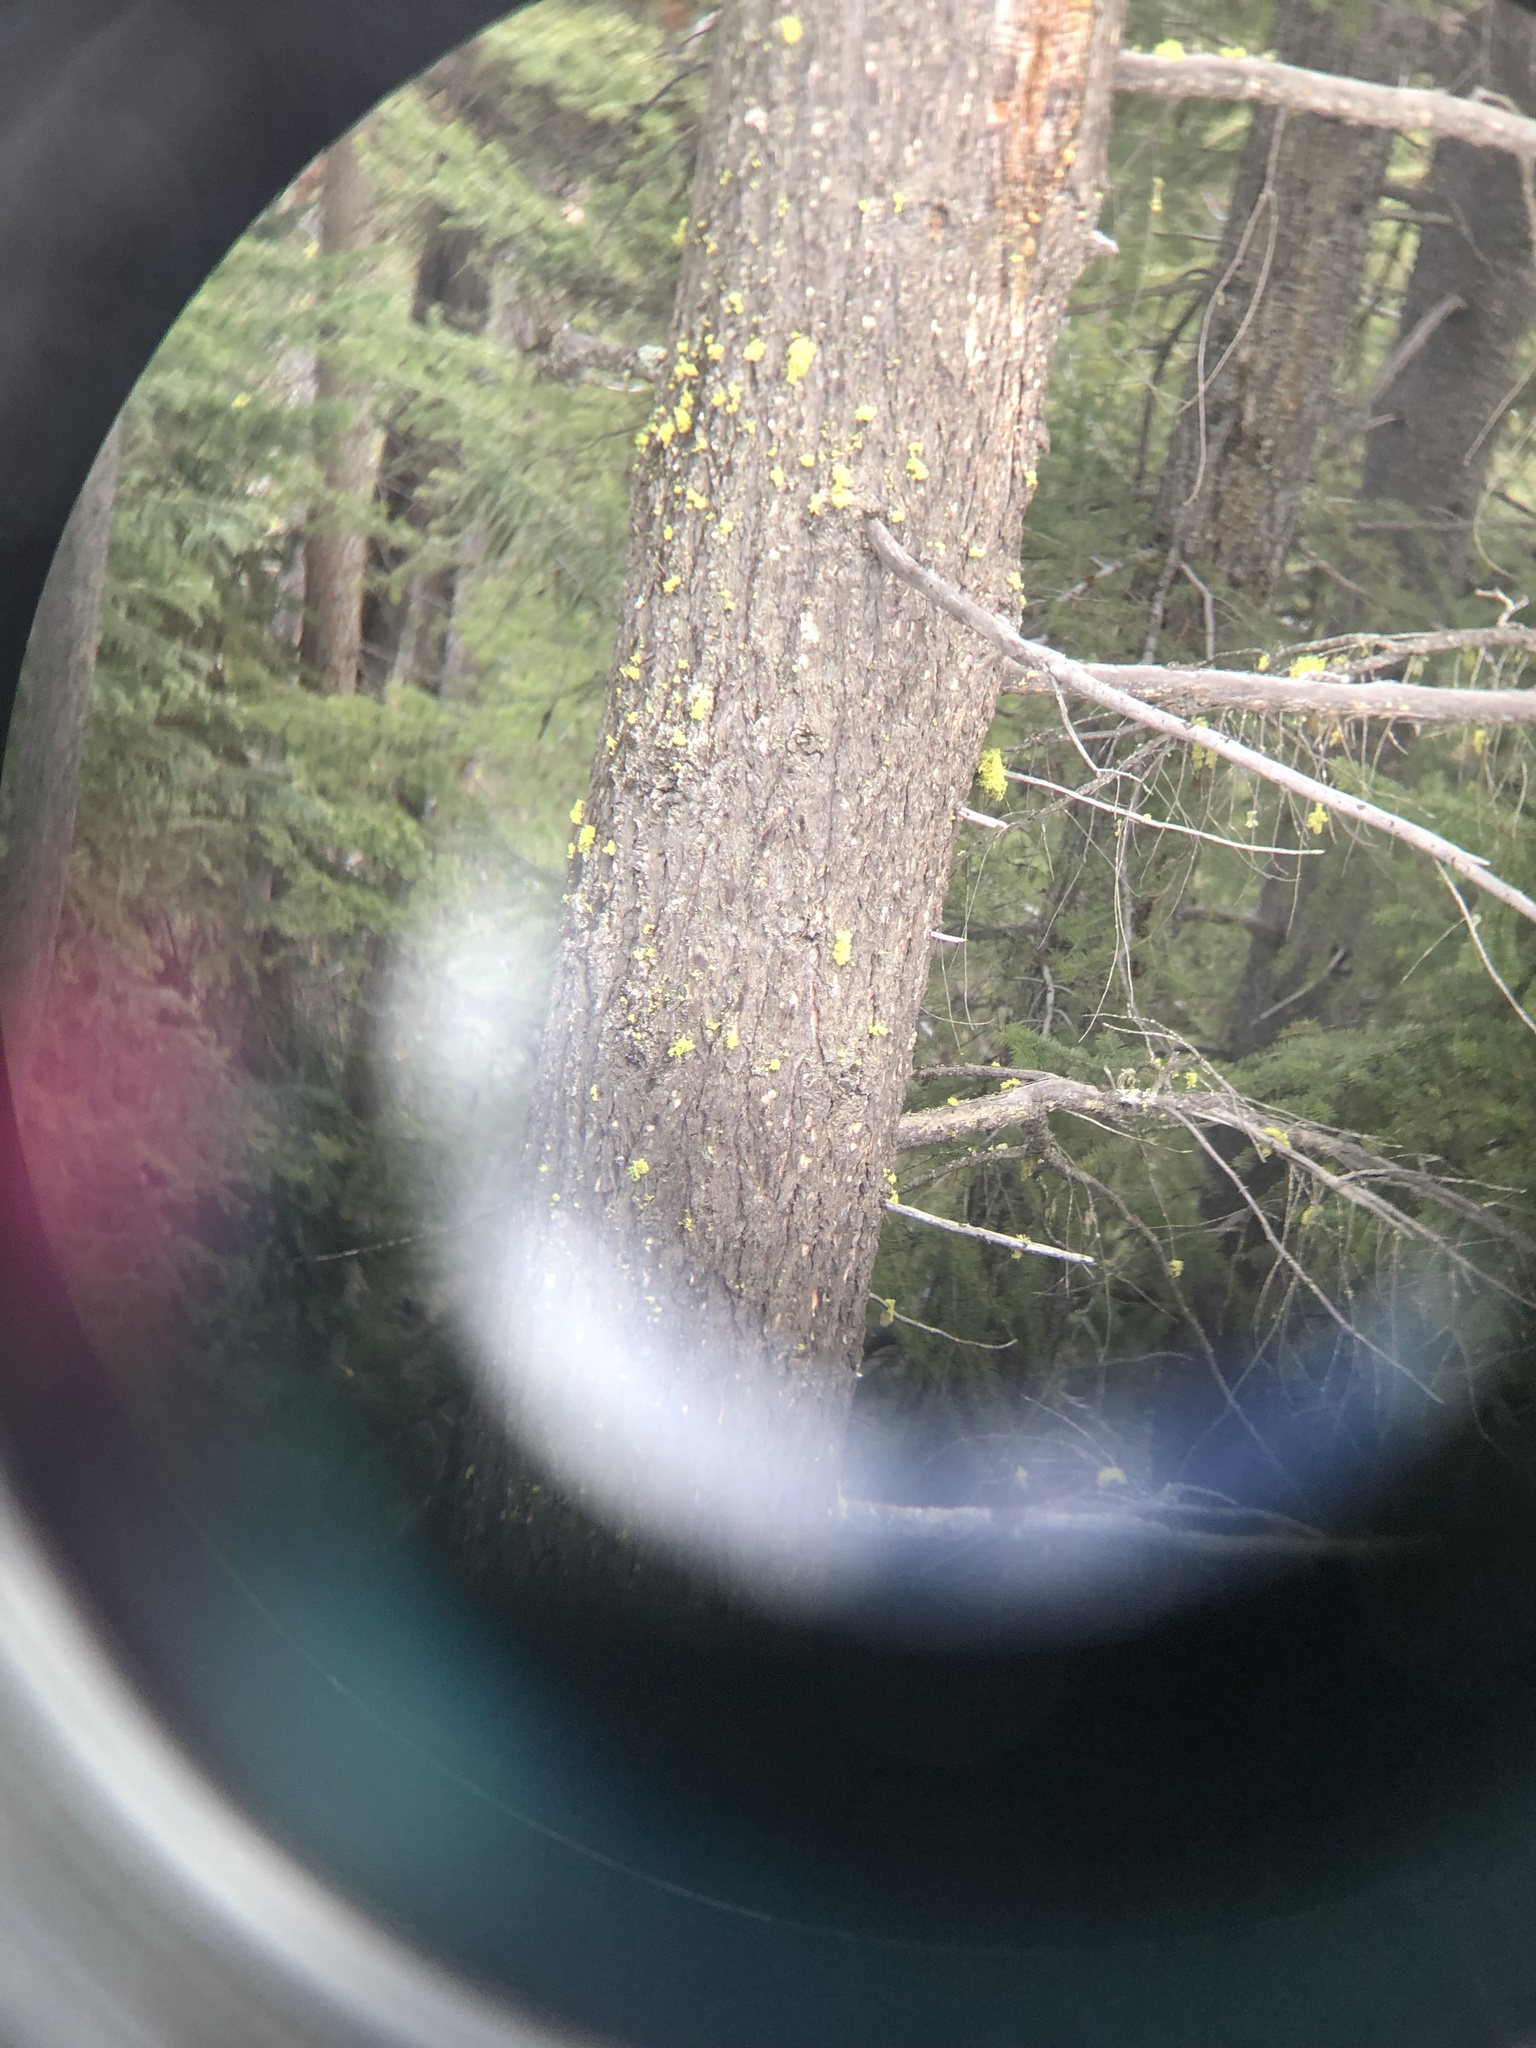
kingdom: Fungi
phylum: Ascomycota
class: Lecanoromycetes
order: Lecanorales
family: Parmeliaceae
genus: Letharia
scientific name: Letharia vulpina
